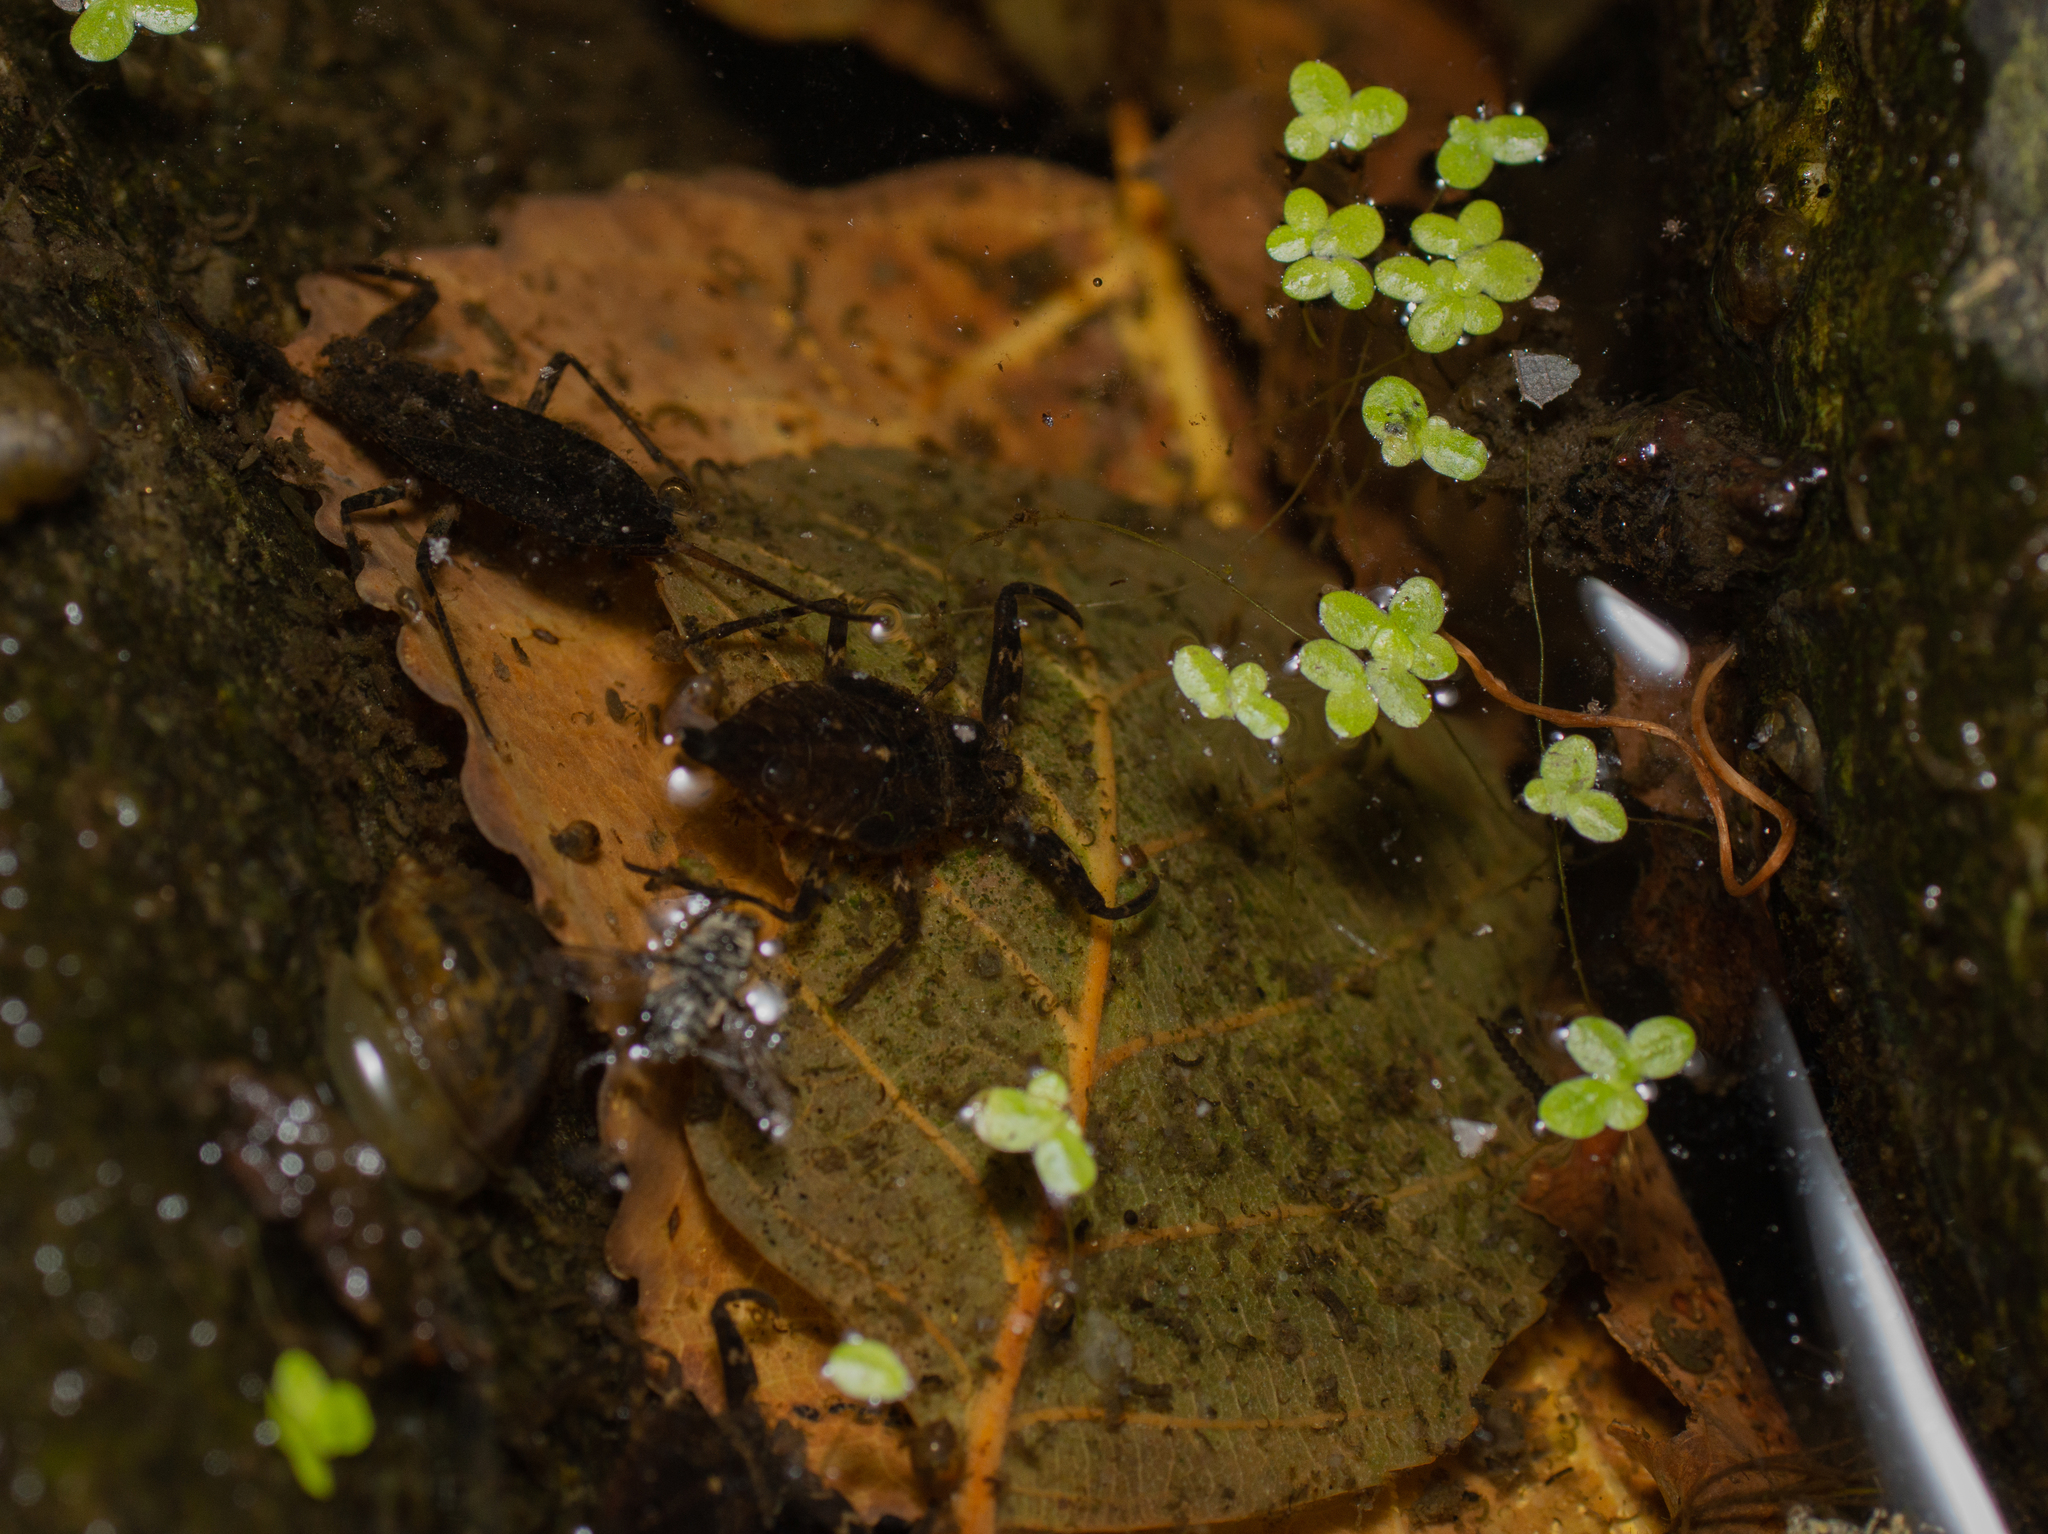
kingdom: Animalia
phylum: Arthropoda
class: Insecta
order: Hemiptera
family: Nepidae
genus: Nepa
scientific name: Nepa cinerea
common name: Water scorpion
